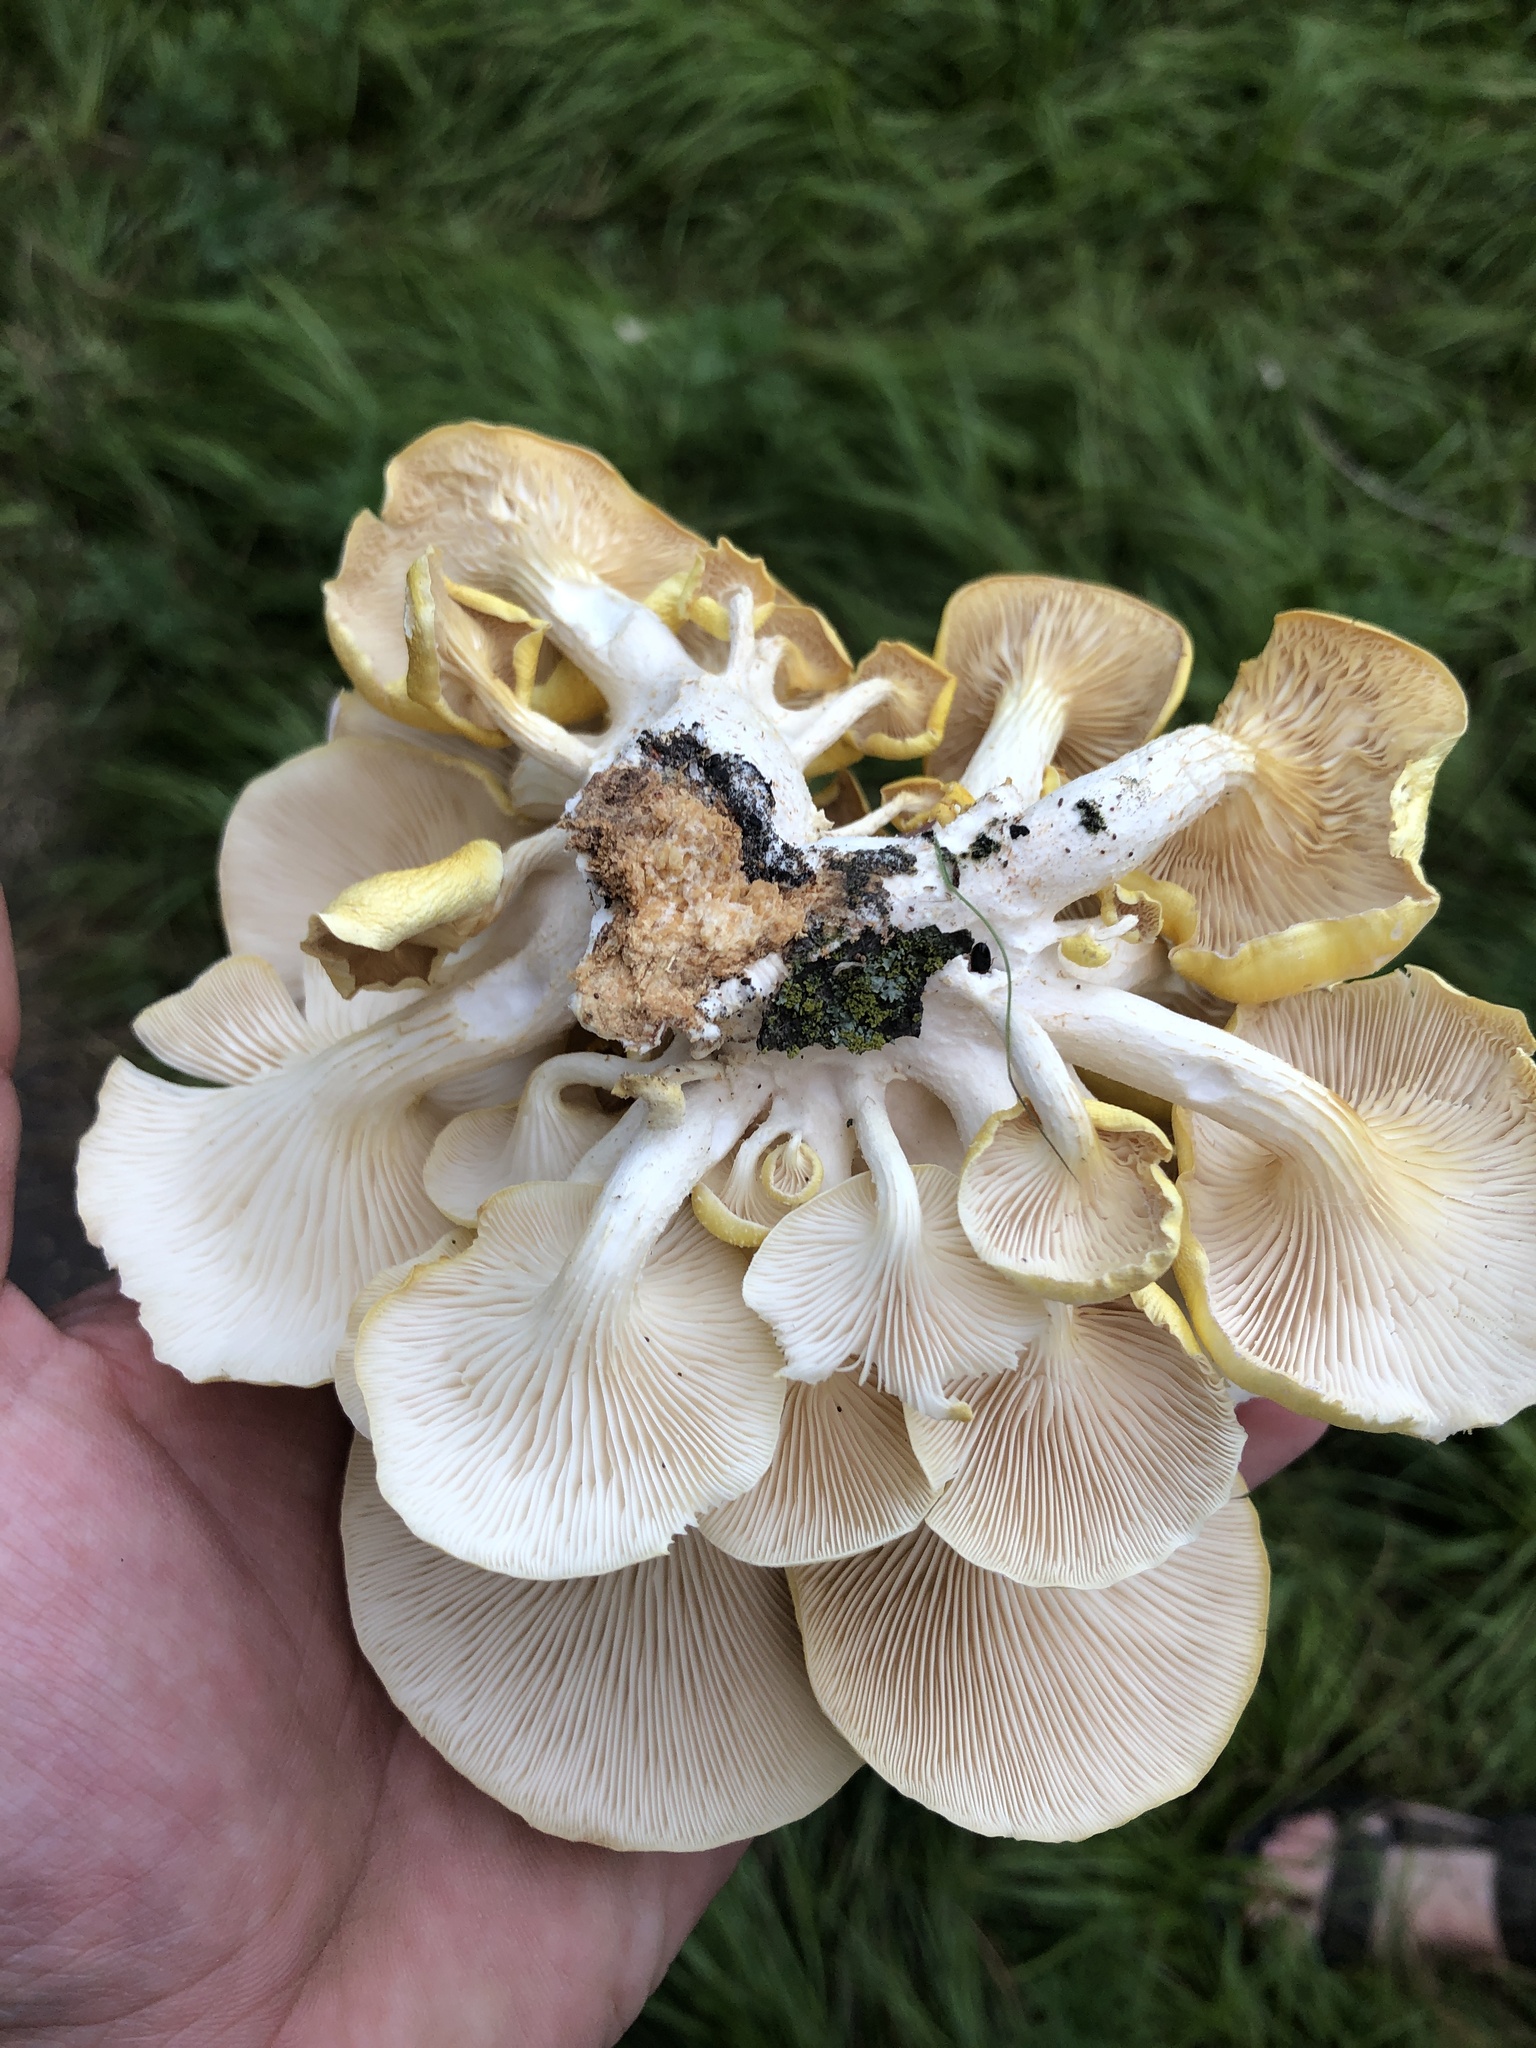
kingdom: Fungi
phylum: Basidiomycota
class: Agaricomycetes
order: Agaricales
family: Pleurotaceae
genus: Pleurotus
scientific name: Pleurotus citrinopileatus
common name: Golden oyster mushroom
